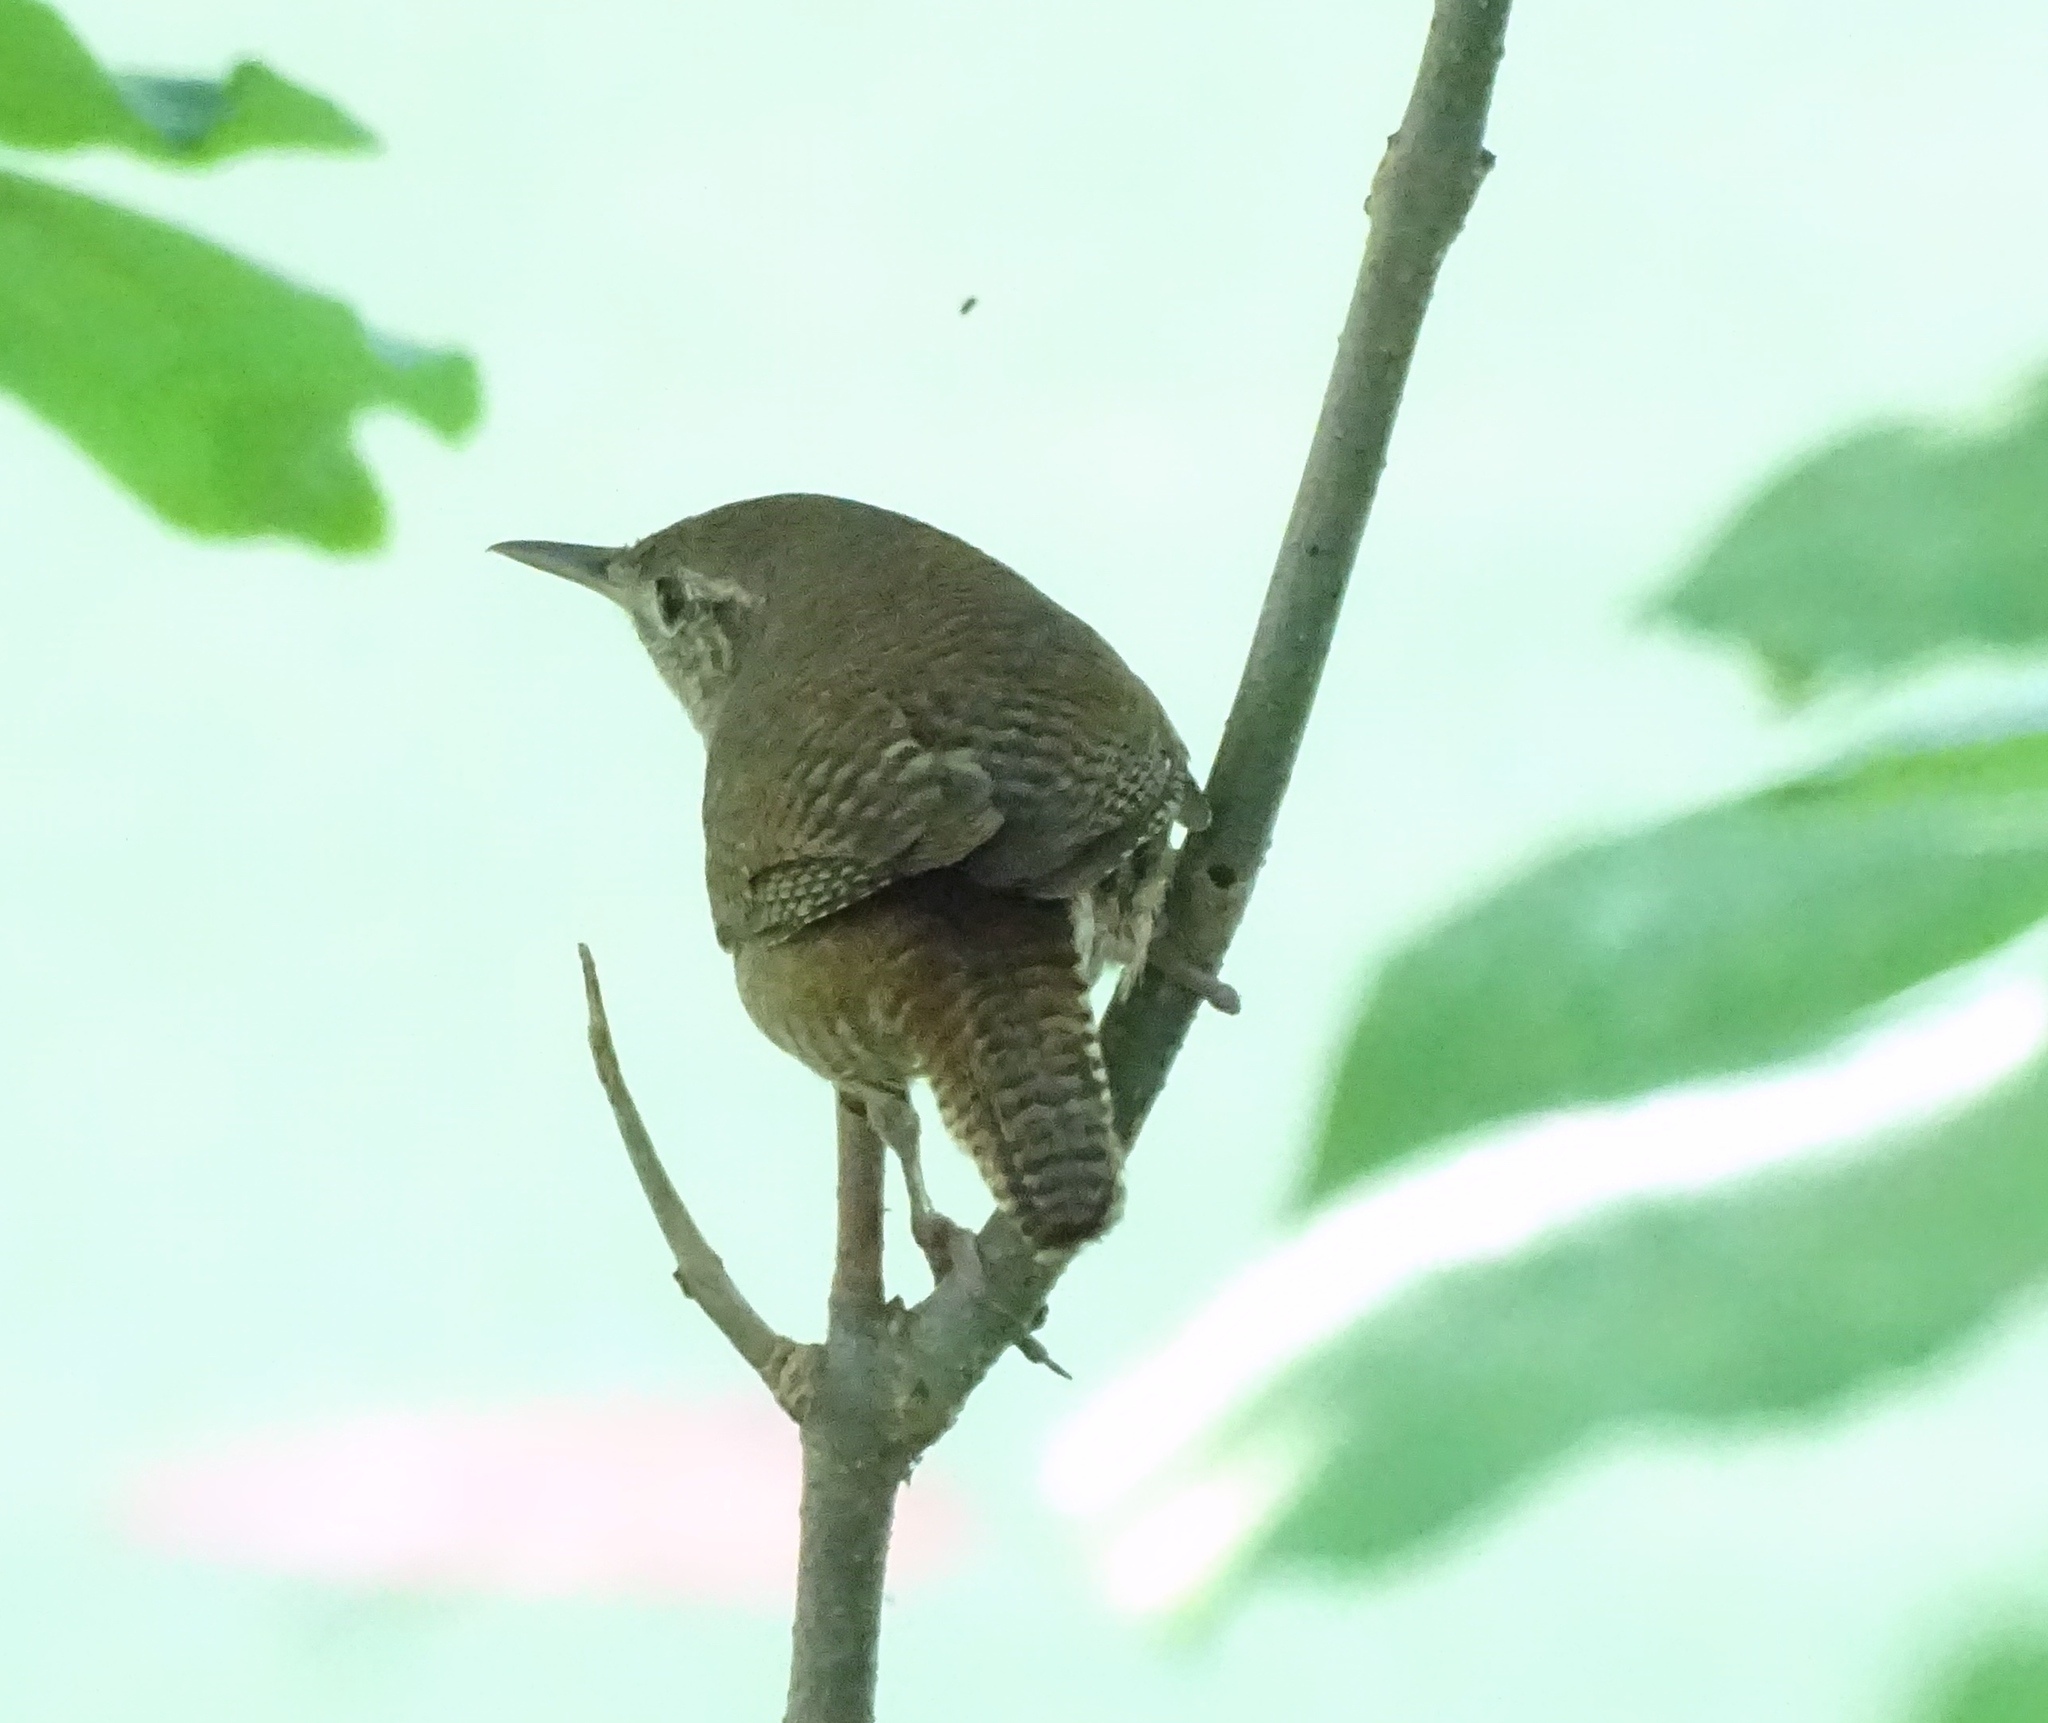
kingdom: Animalia
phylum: Chordata
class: Aves
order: Passeriformes
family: Troglodytidae
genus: Troglodytes
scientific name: Troglodytes aedon
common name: House wren
